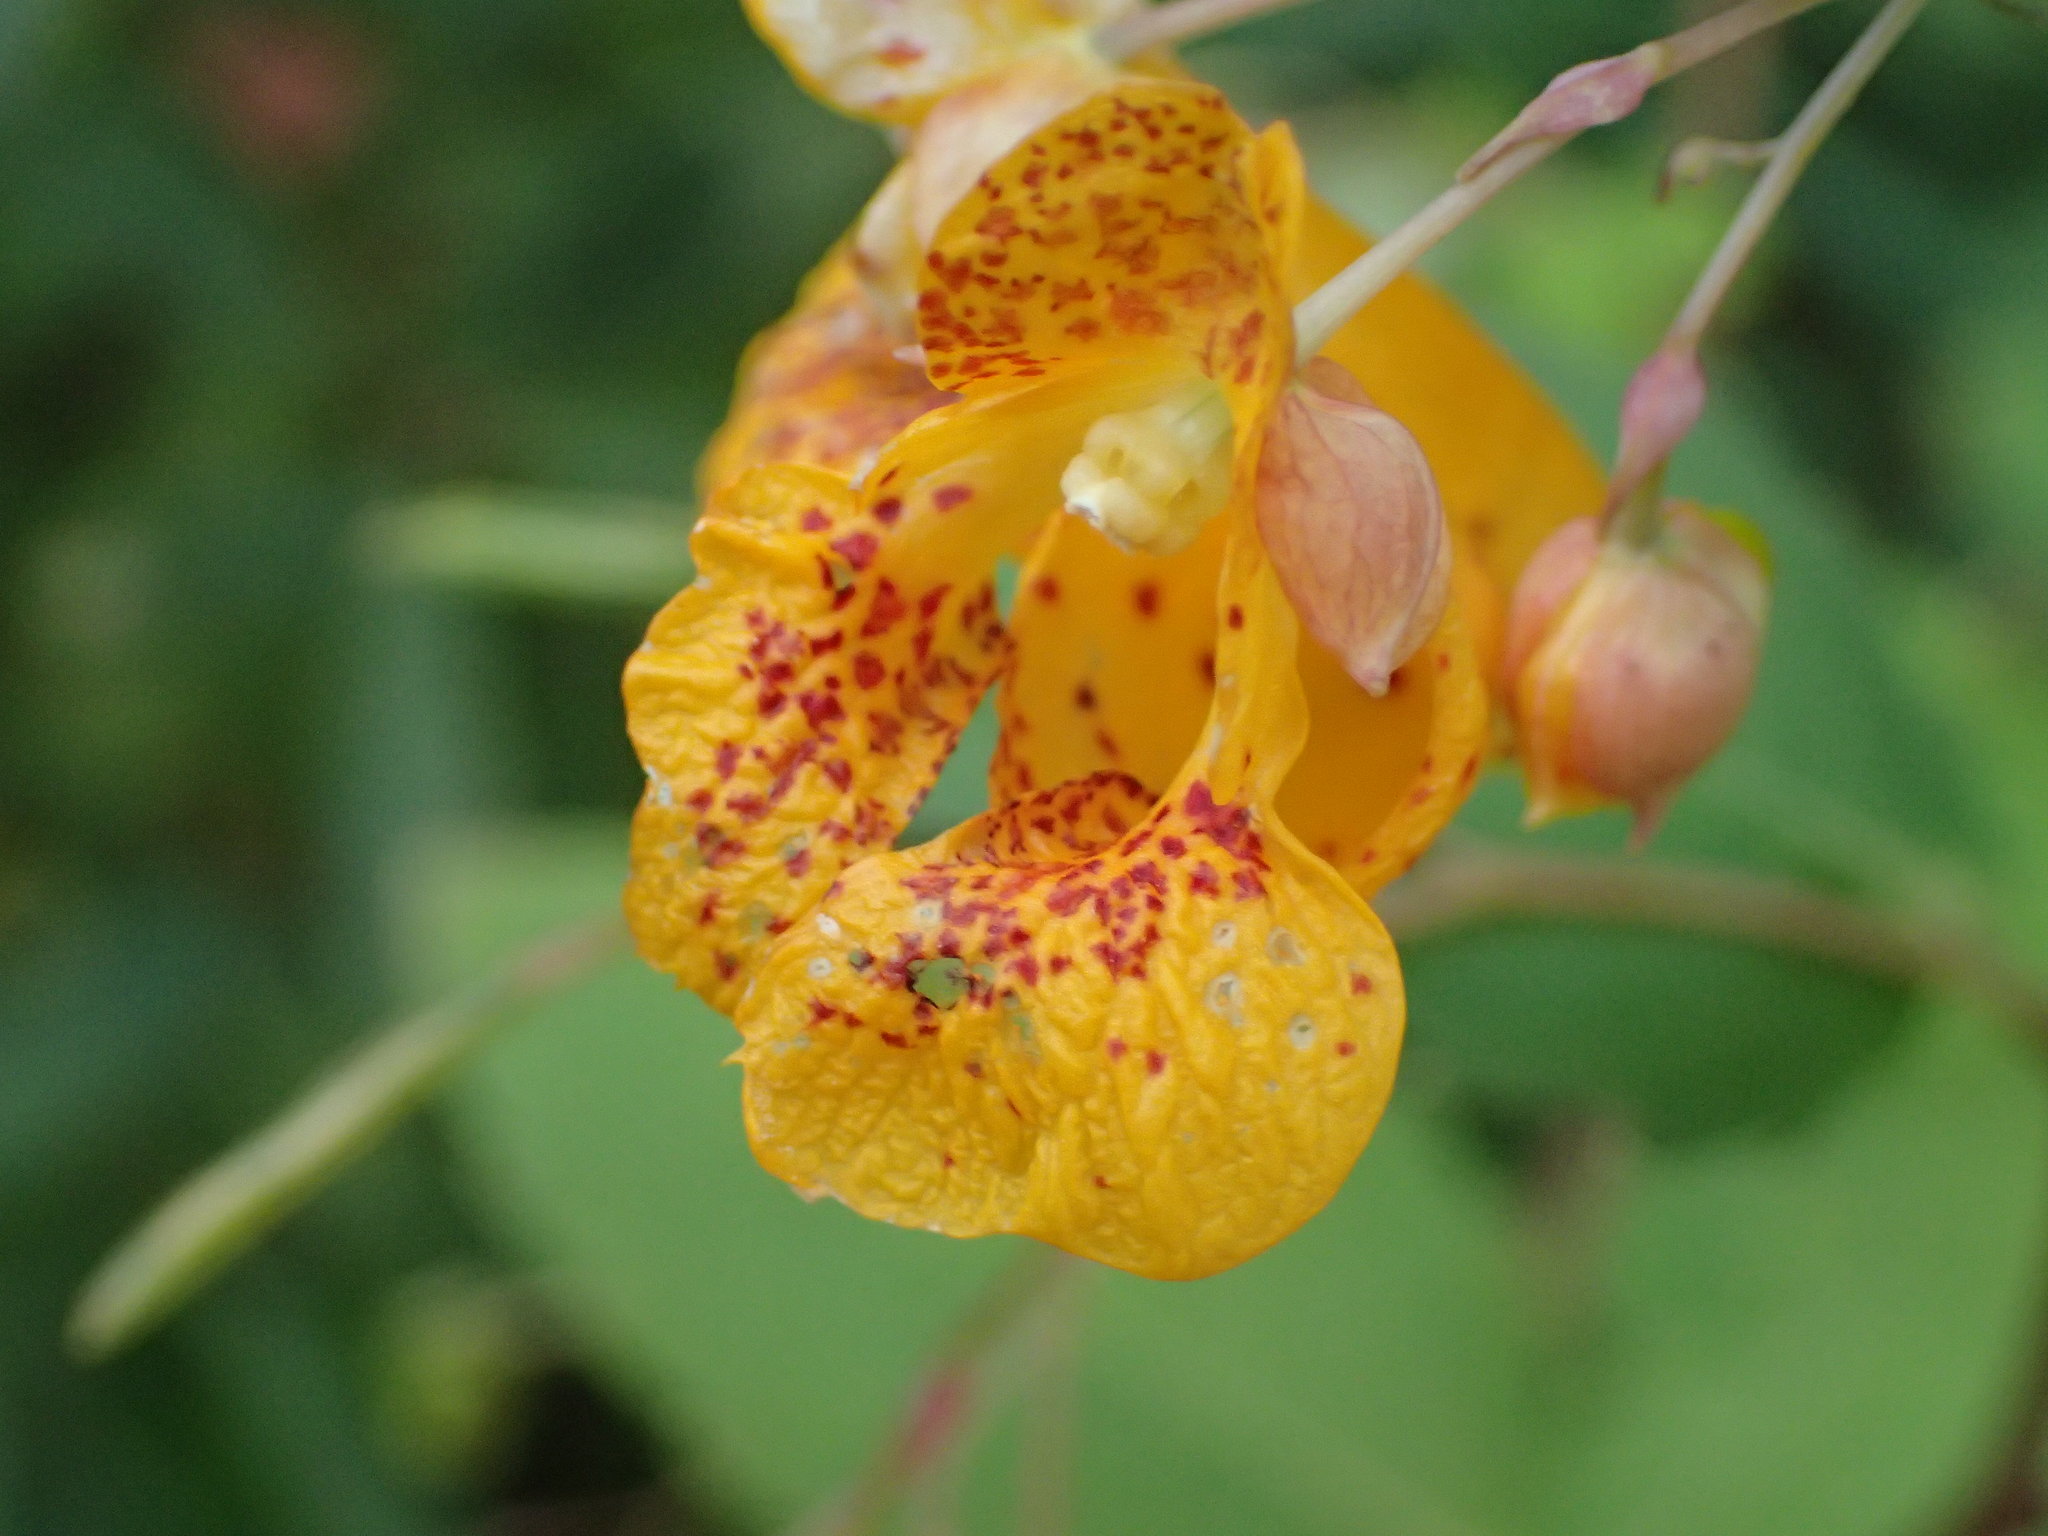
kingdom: Plantae
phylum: Tracheophyta
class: Magnoliopsida
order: Ericales
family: Balsaminaceae
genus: Impatiens
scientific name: Impatiens capensis
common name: Orange balsam
